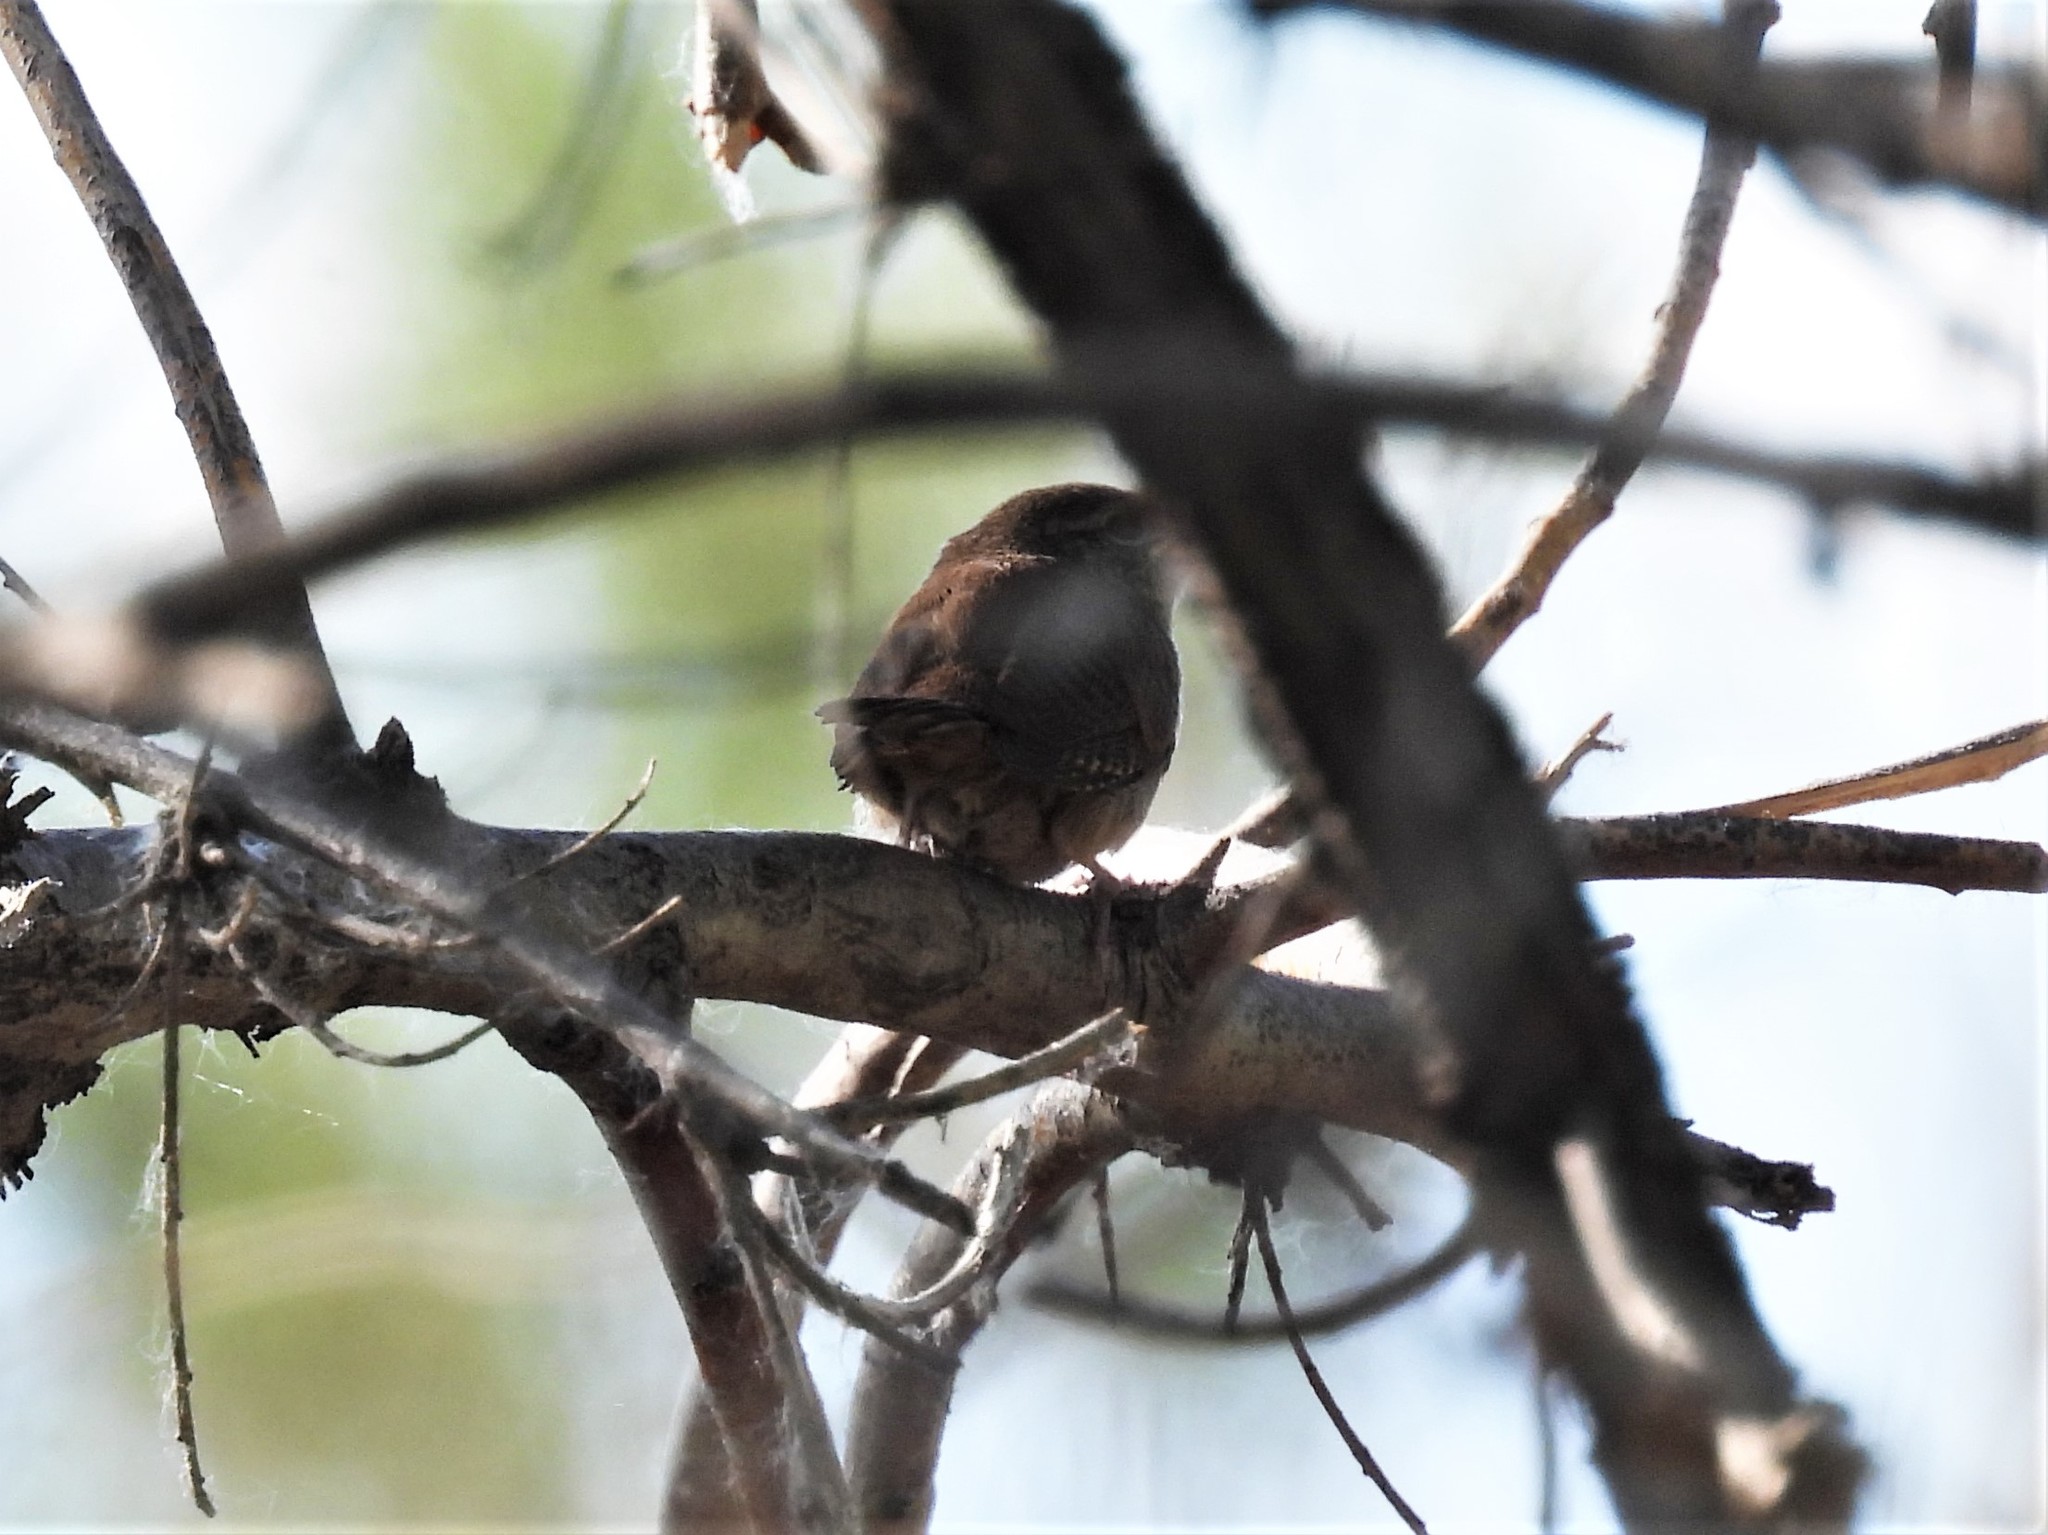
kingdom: Animalia
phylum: Chordata
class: Aves
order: Passeriformes
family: Troglodytidae
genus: Thryomanes
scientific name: Thryomanes bewickii
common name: Bewick's wren
